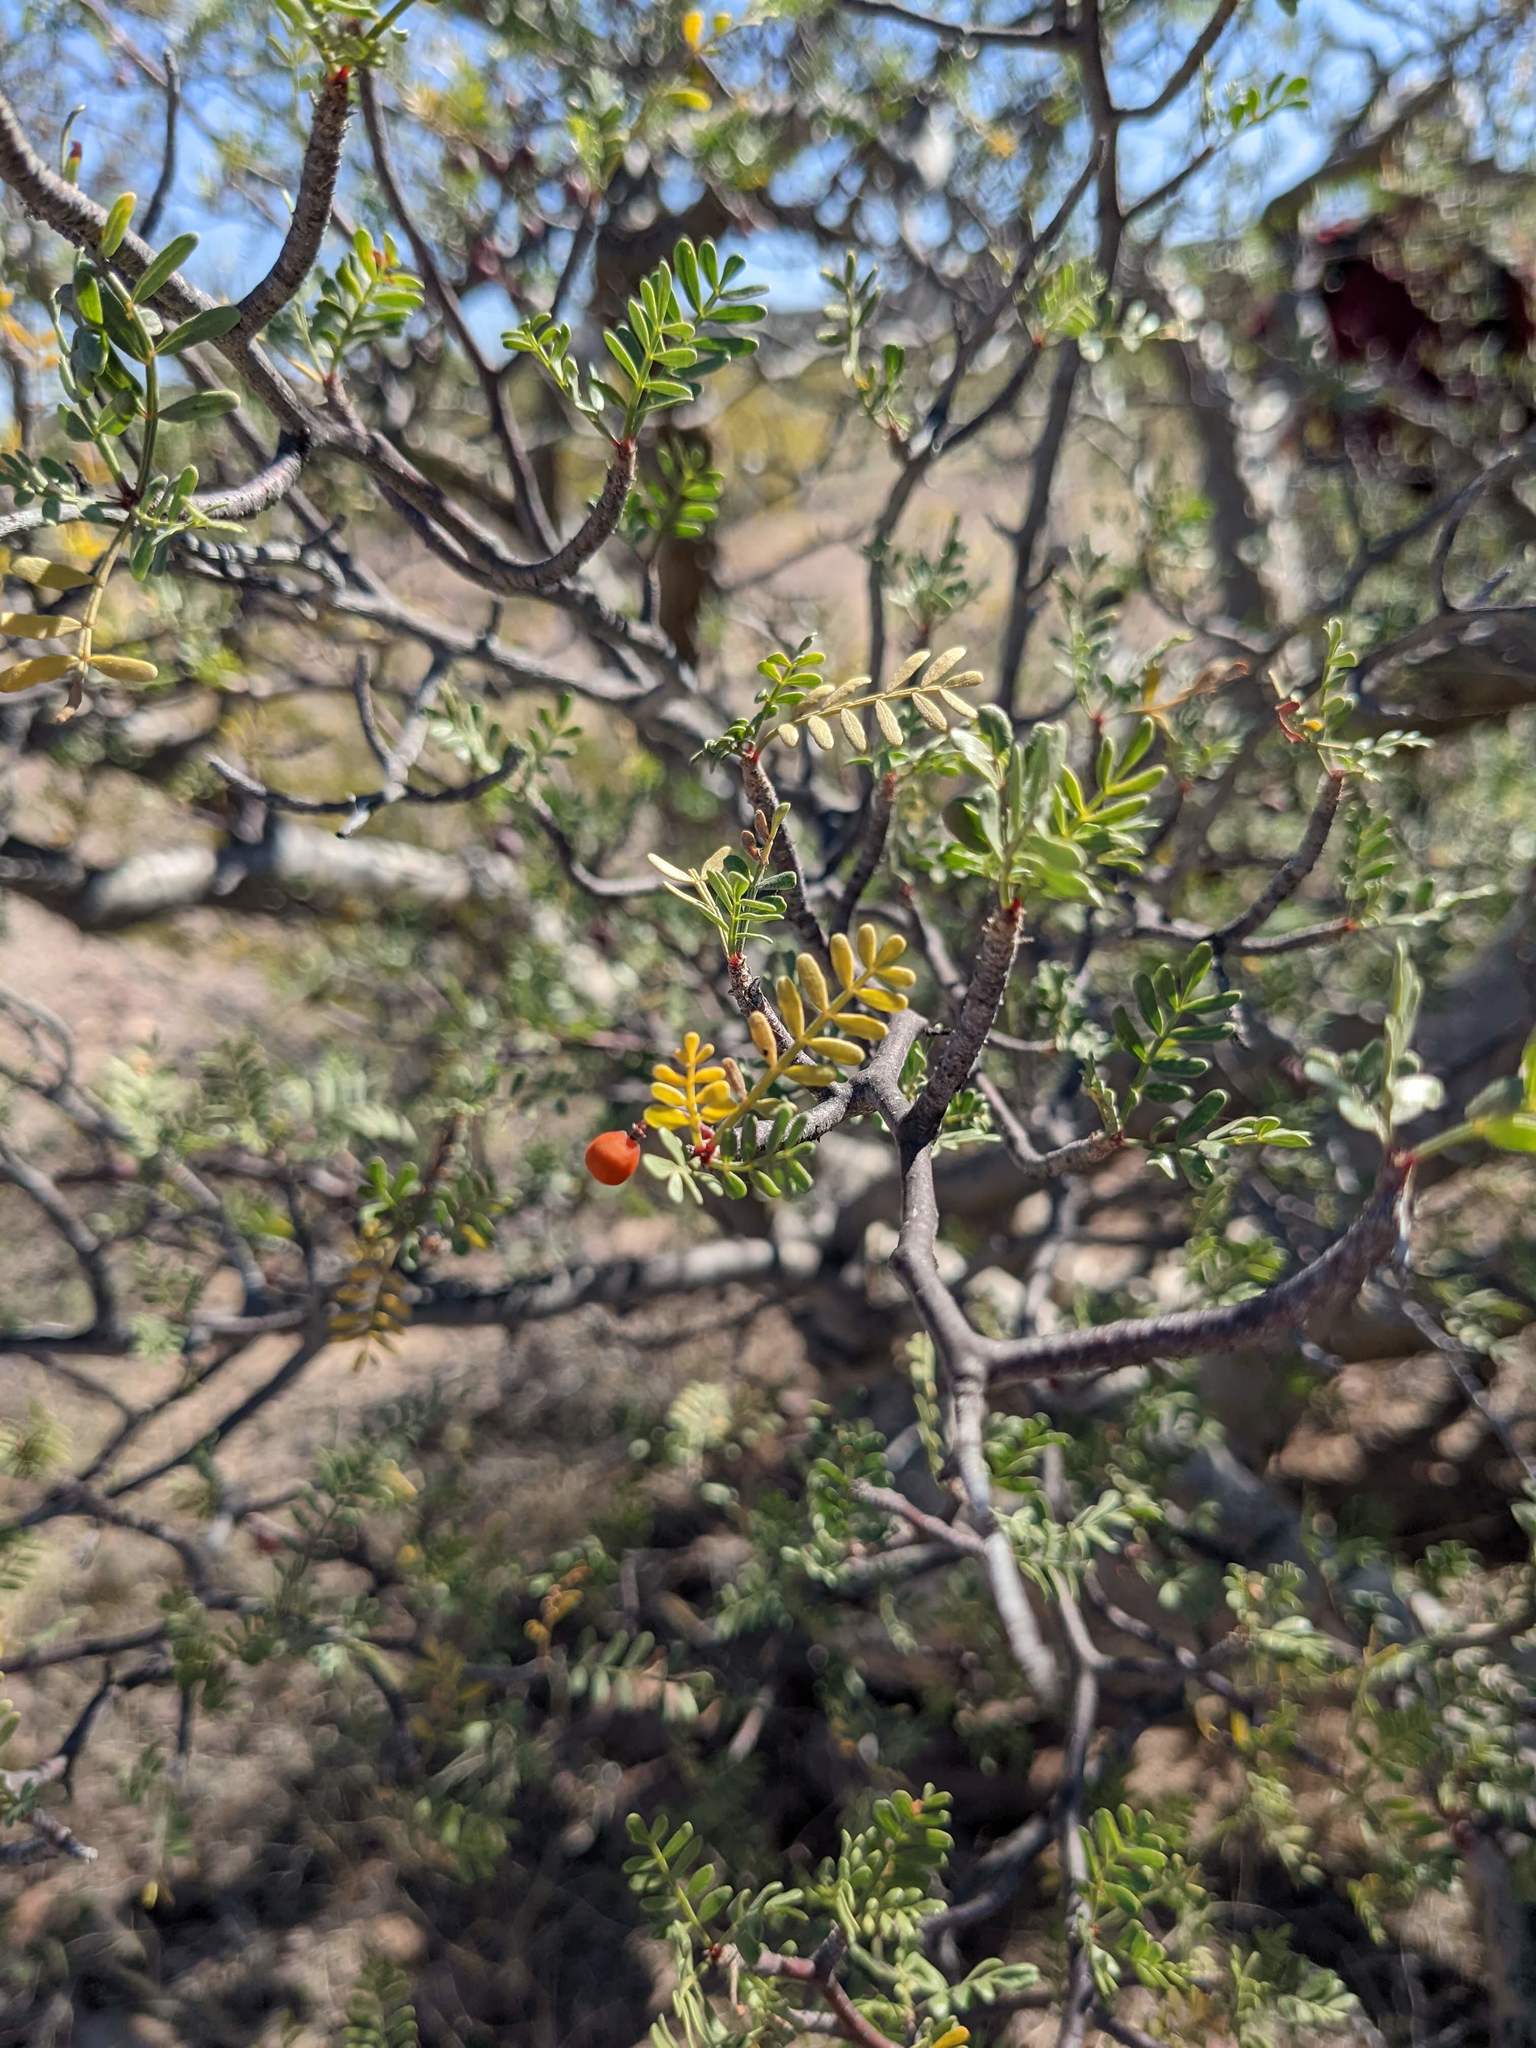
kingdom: Plantae
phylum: Tracheophyta
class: Magnoliopsida
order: Sapindales
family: Burseraceae
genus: Bursera
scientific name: Bursera microphylla
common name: Elephant tree
